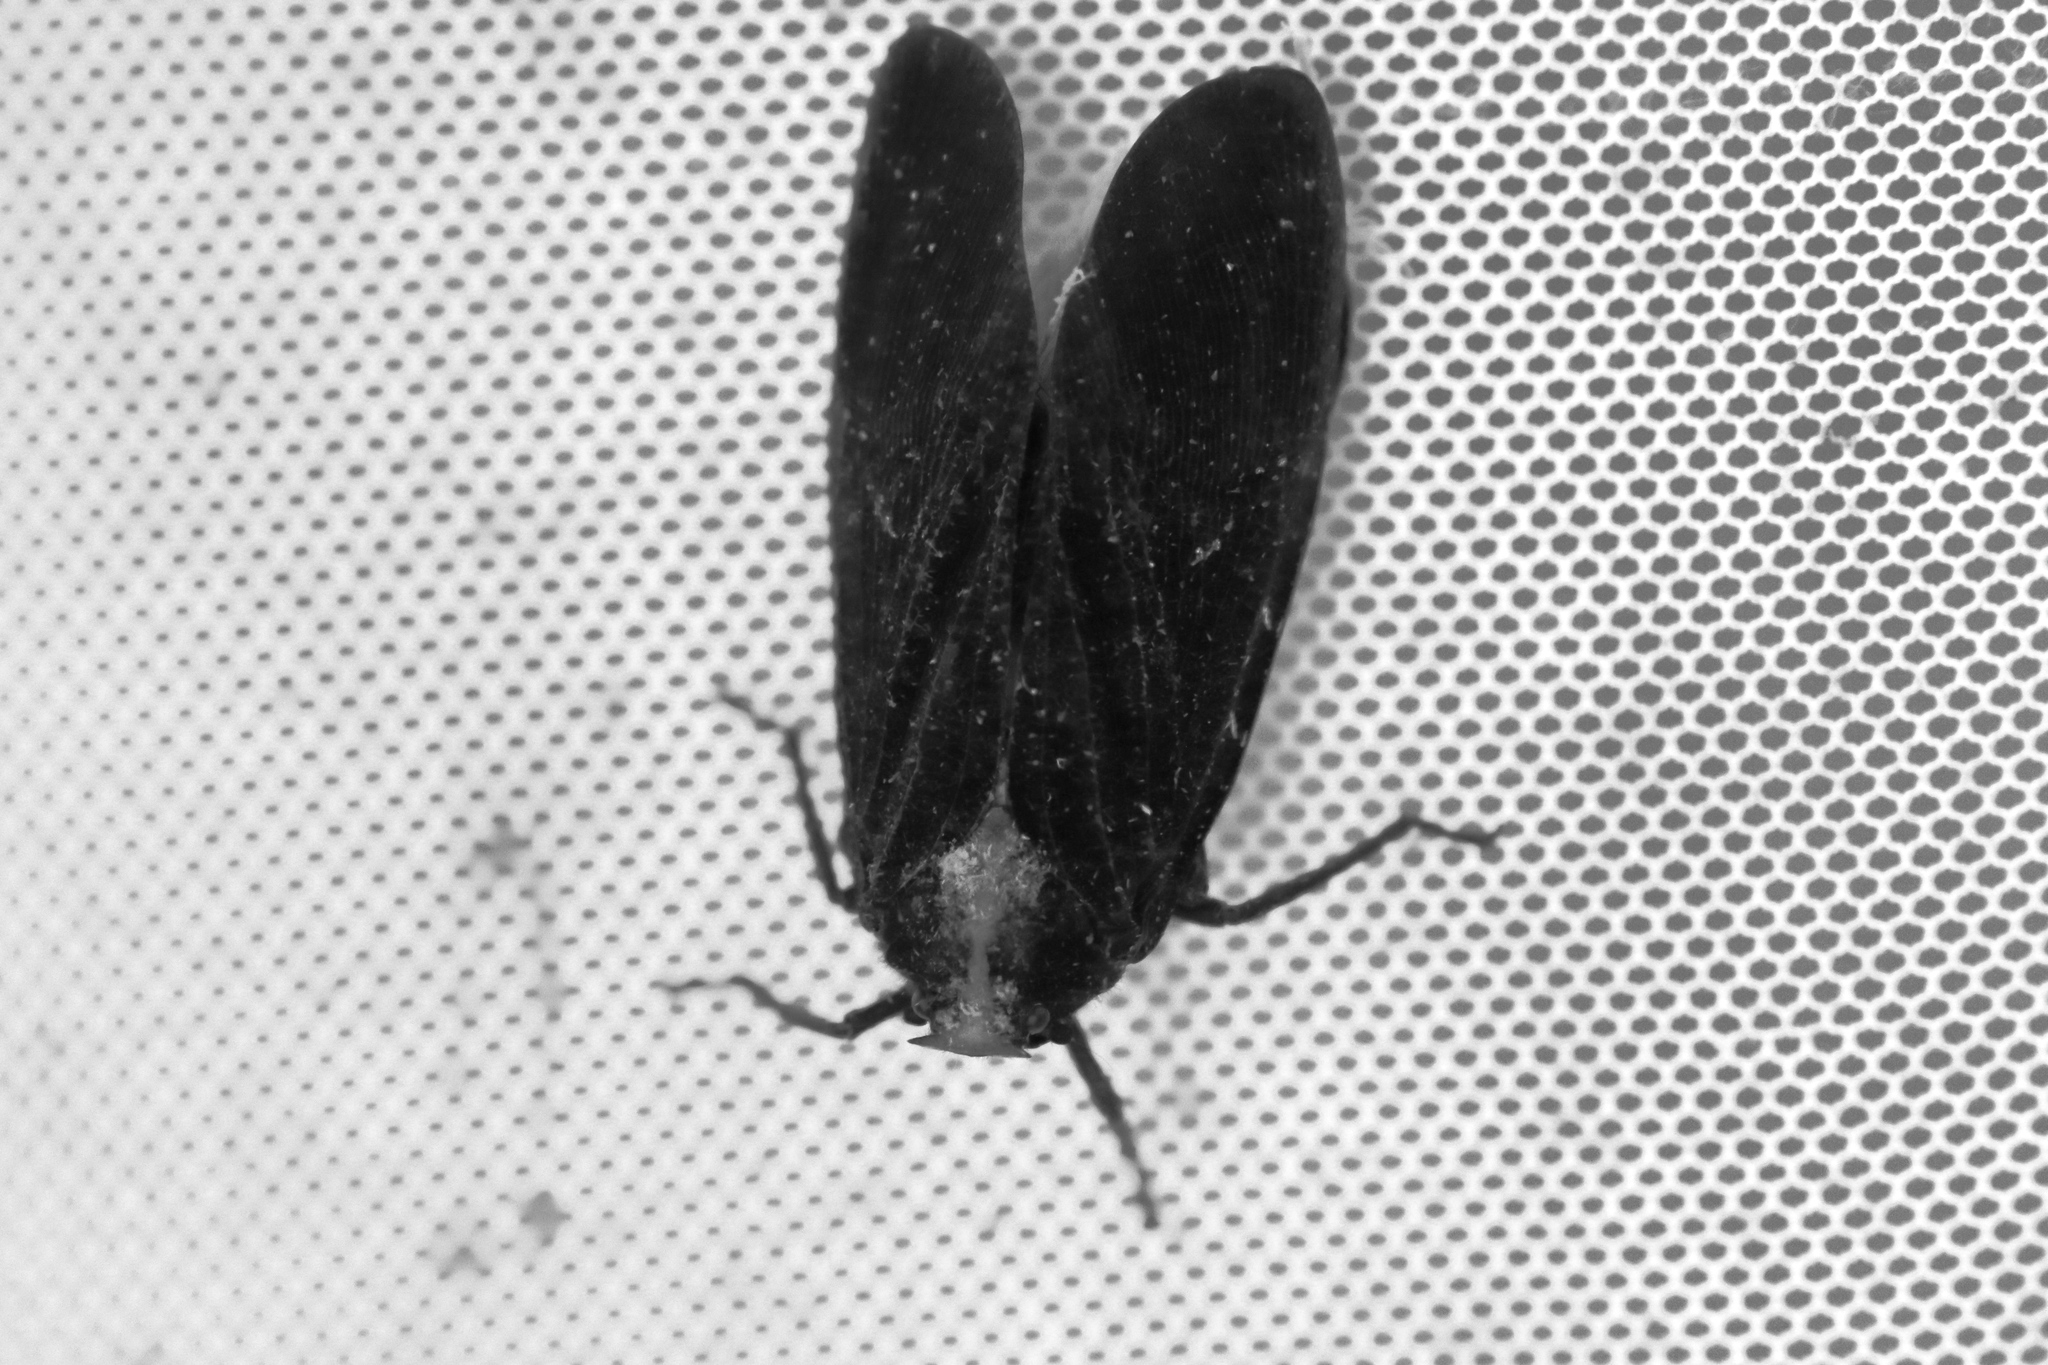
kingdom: Animalia
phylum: Arthropoda
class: Insecta
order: Hemiptera
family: Fulgoridae
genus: Menenia
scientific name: Menenia terebrifera
